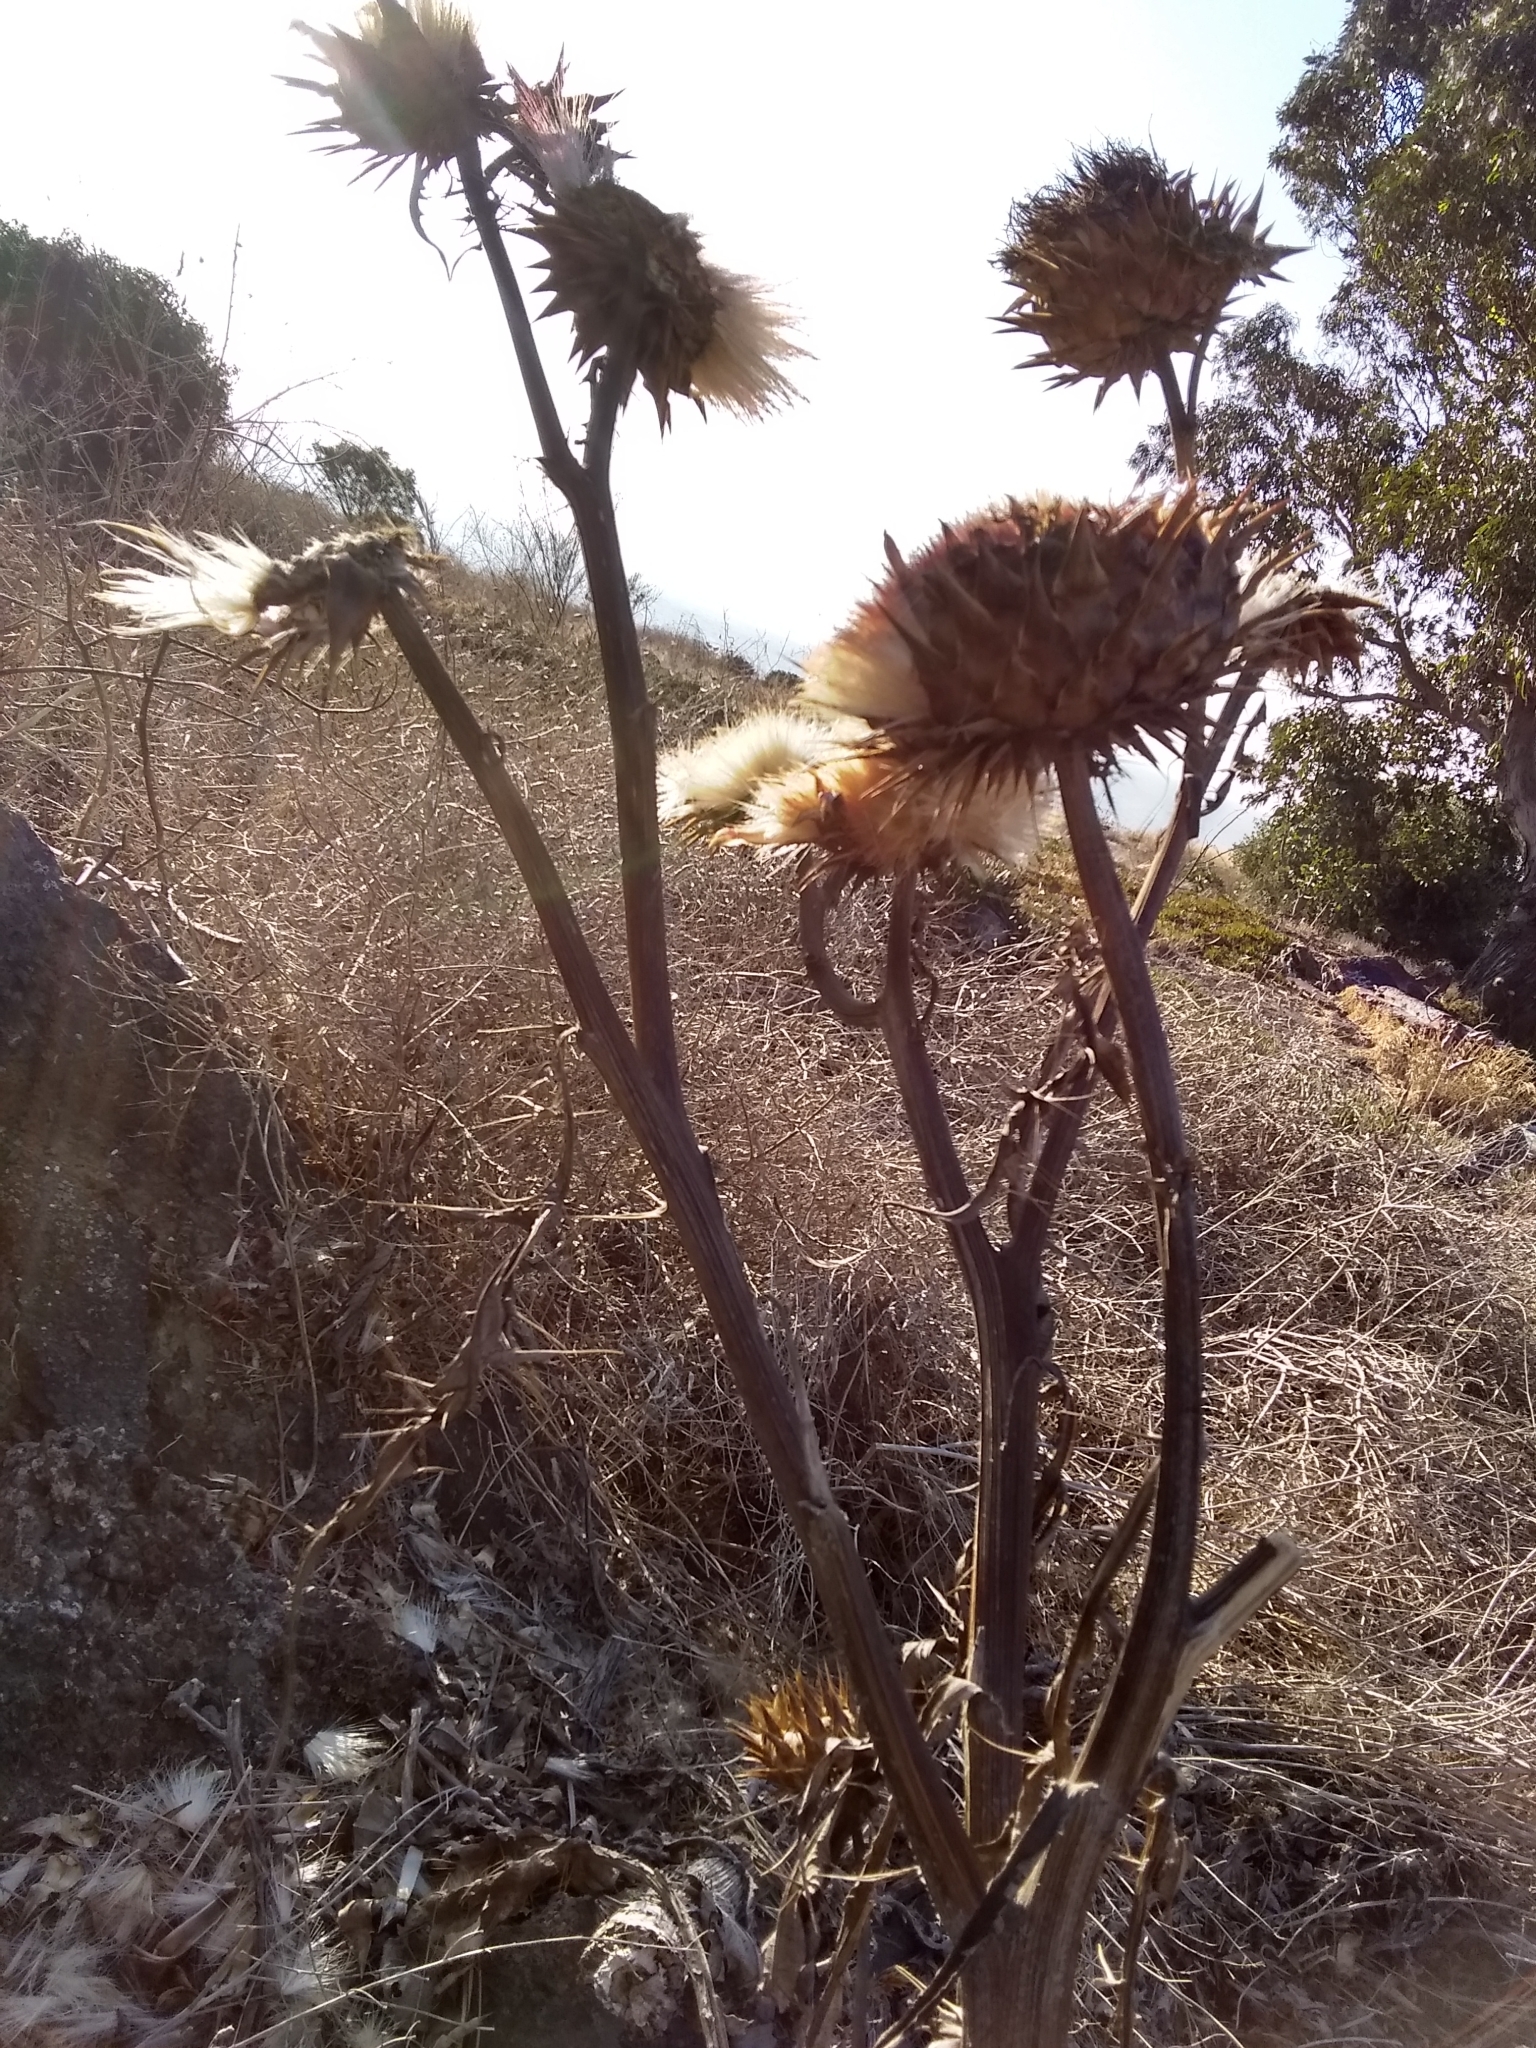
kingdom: Plantae
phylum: Tracheophyta
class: Magnoliopsida
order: Asterales
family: Asteraceae
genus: Cynara
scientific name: Cynara cardunculus
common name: Globe artichoke
